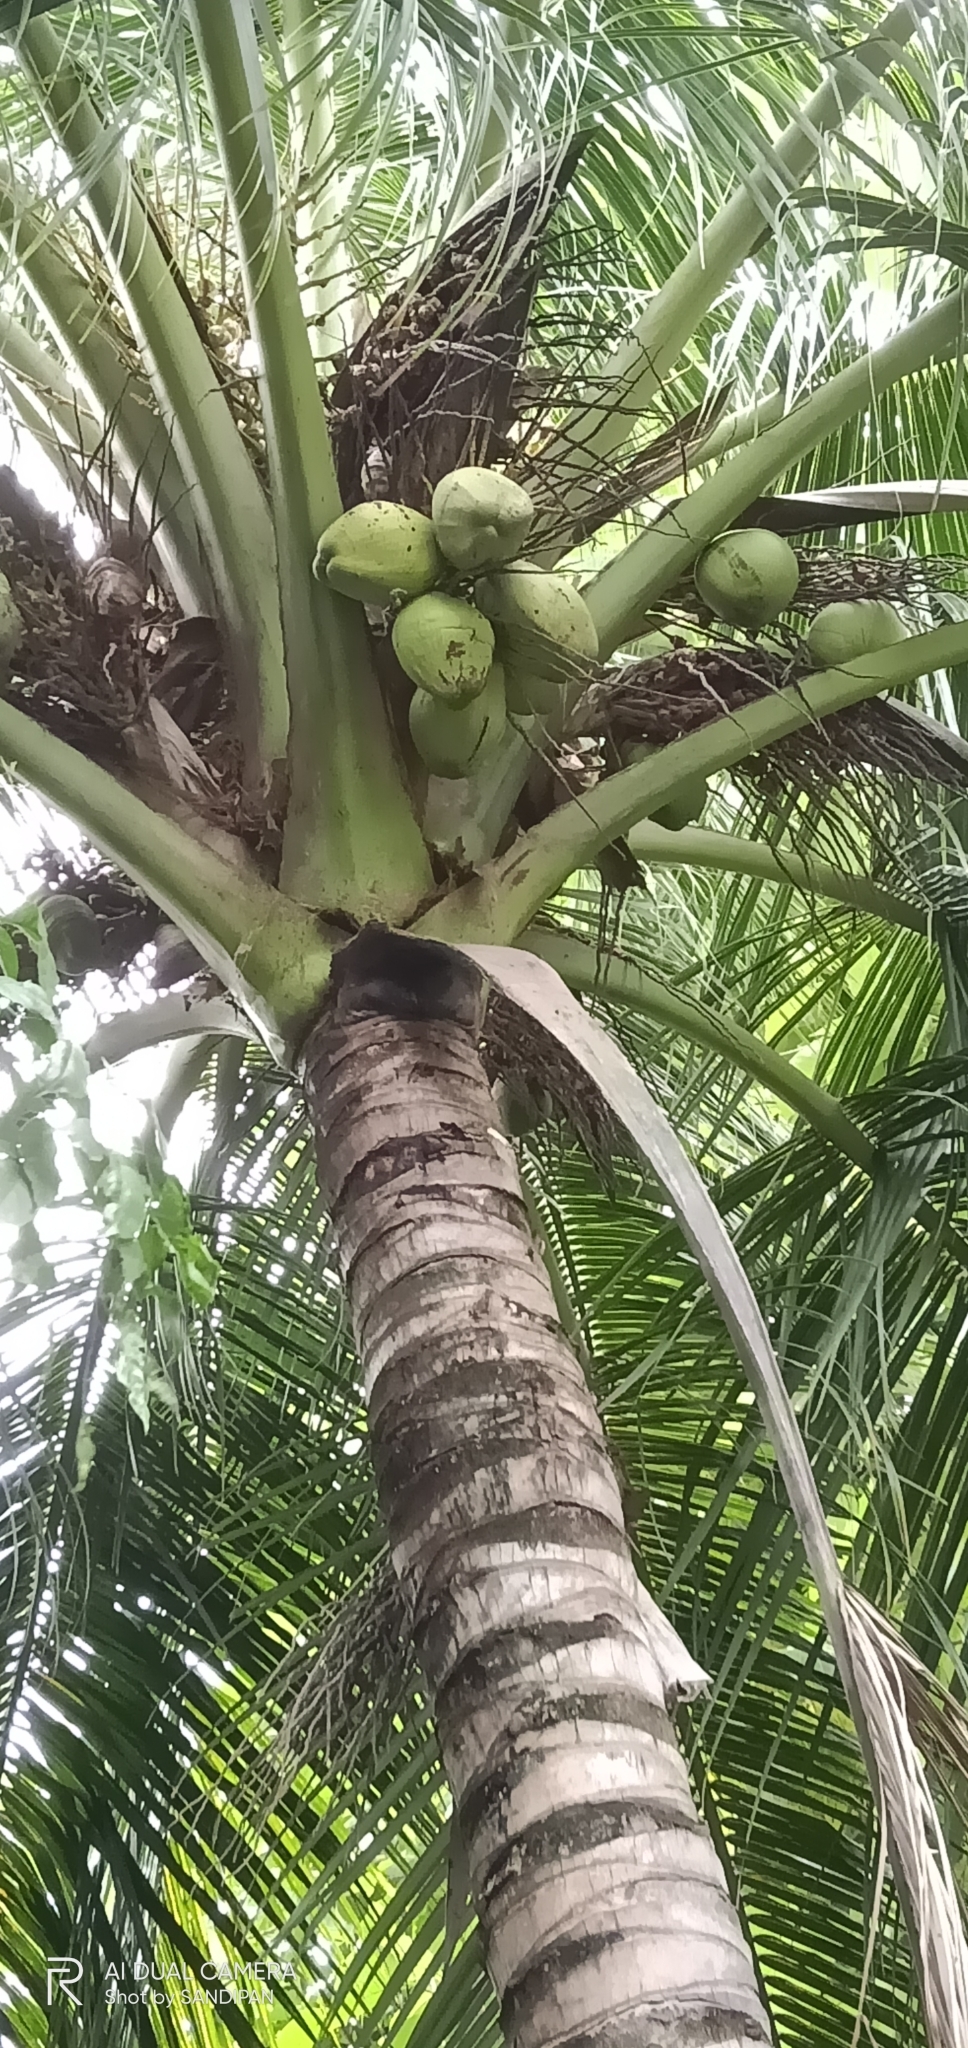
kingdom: Plantae
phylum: Tracheophyta
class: Liliopsida
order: Arecales
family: Arecaceae
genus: Cocos
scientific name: Cocos nucifera
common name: Coconut palm
